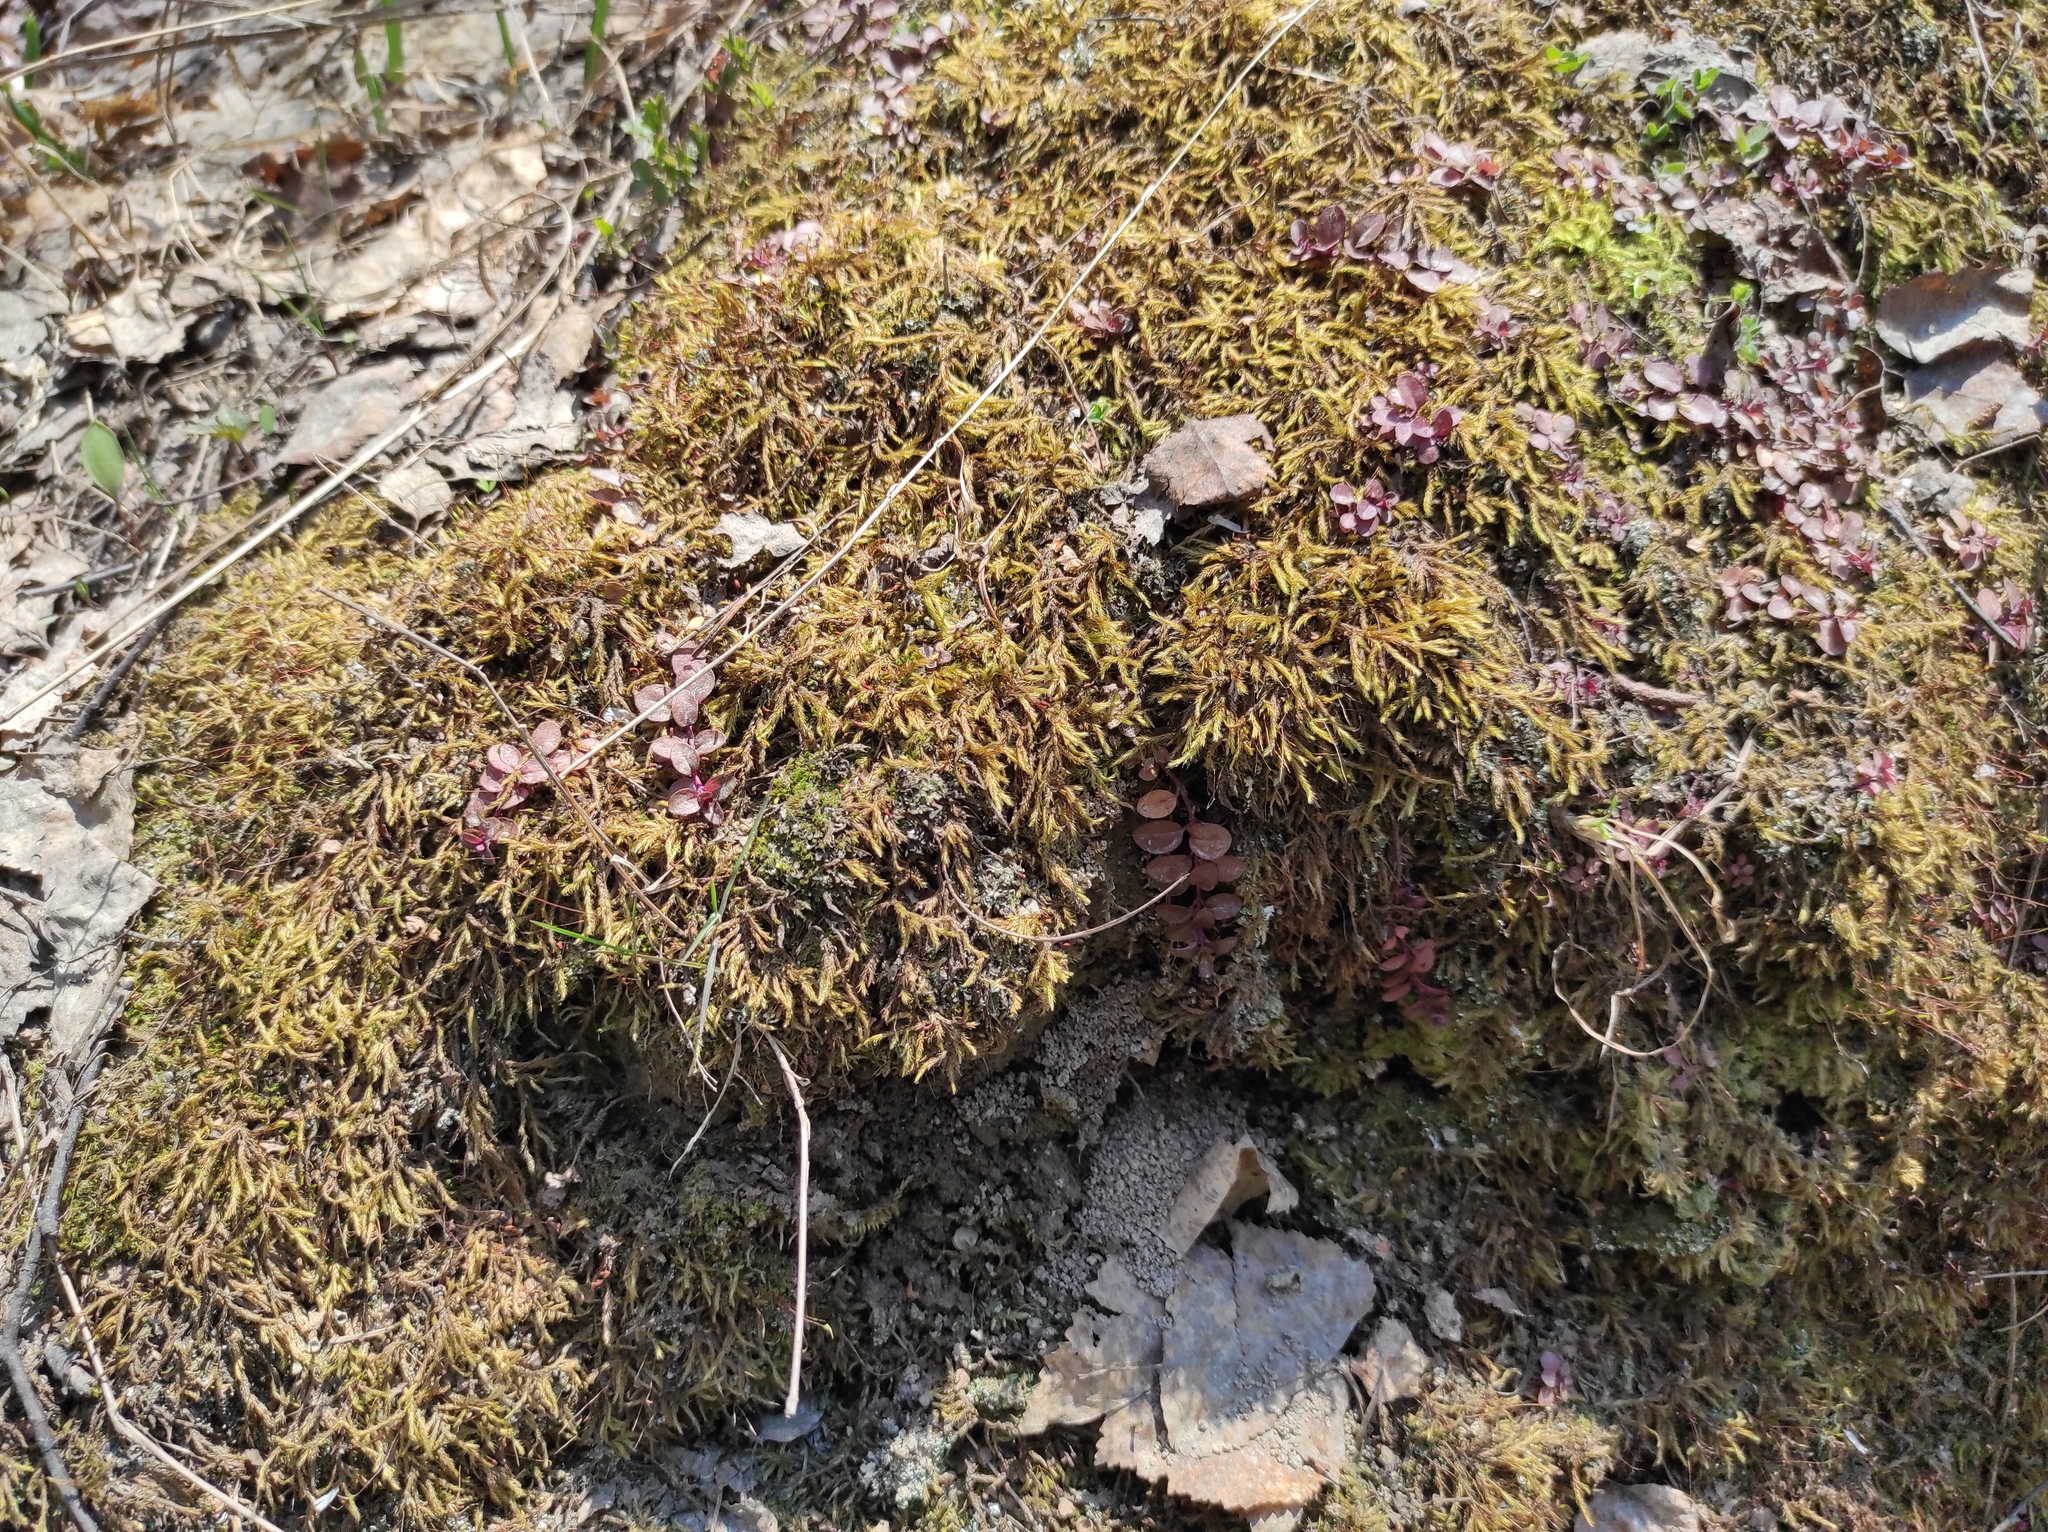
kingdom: Plantae
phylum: Tracheophyta
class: Magnoliopsida
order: Dipsacales
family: Caprifoliaceae
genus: Linnaea
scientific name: Linnaea borealis
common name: Twinflower
